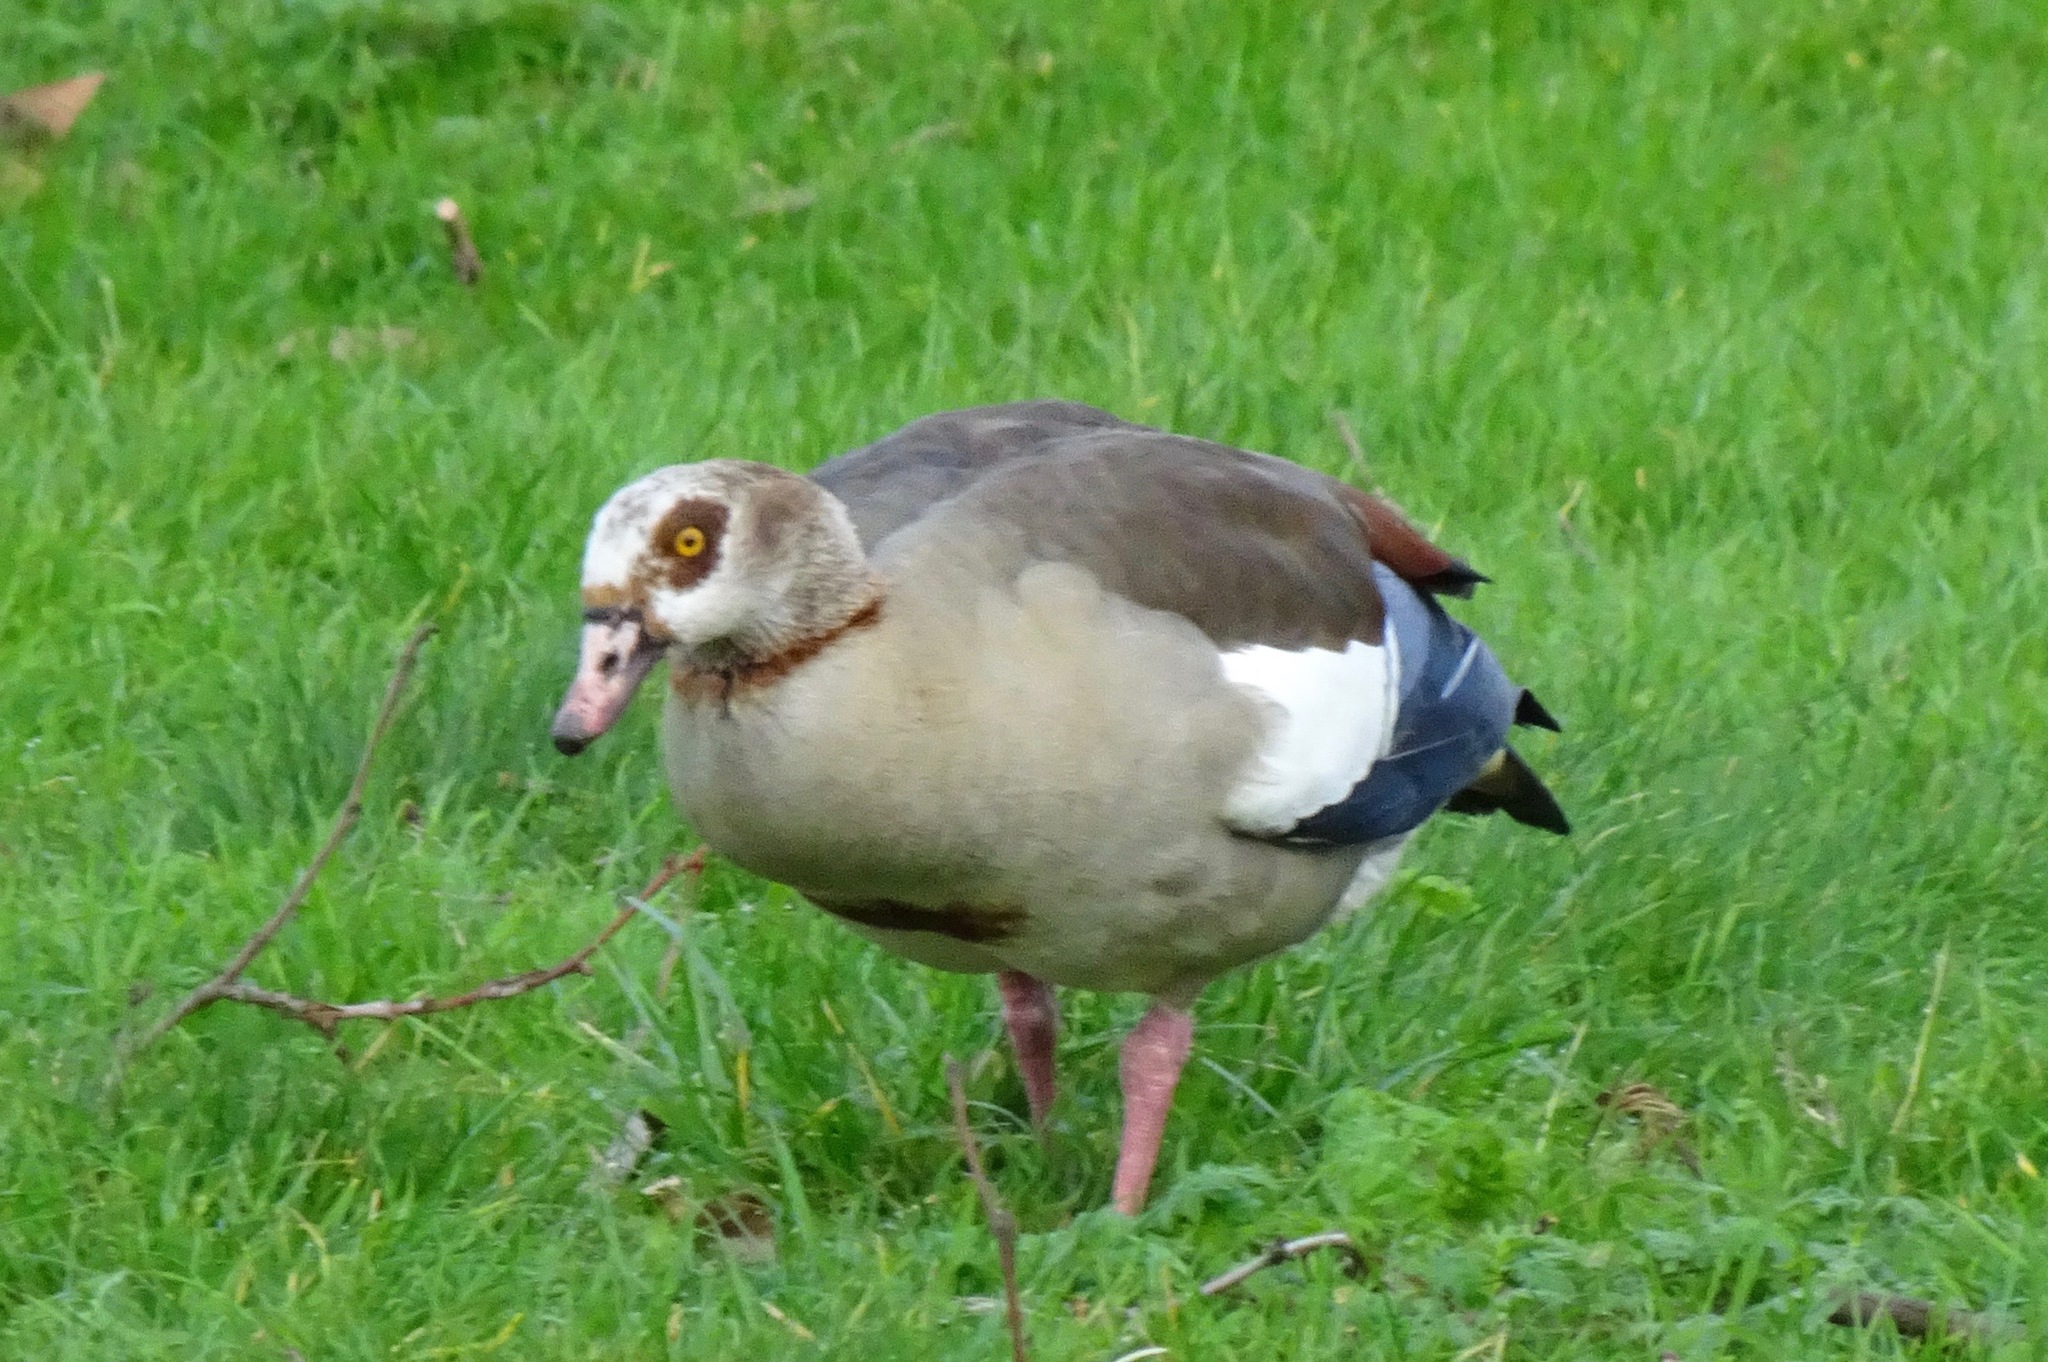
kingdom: Animalia
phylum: Chordata
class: Aves
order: Anseriformes
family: Anatidae
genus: Alopochen
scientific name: Alopochen aegyptiaca
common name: Egyptian goose
